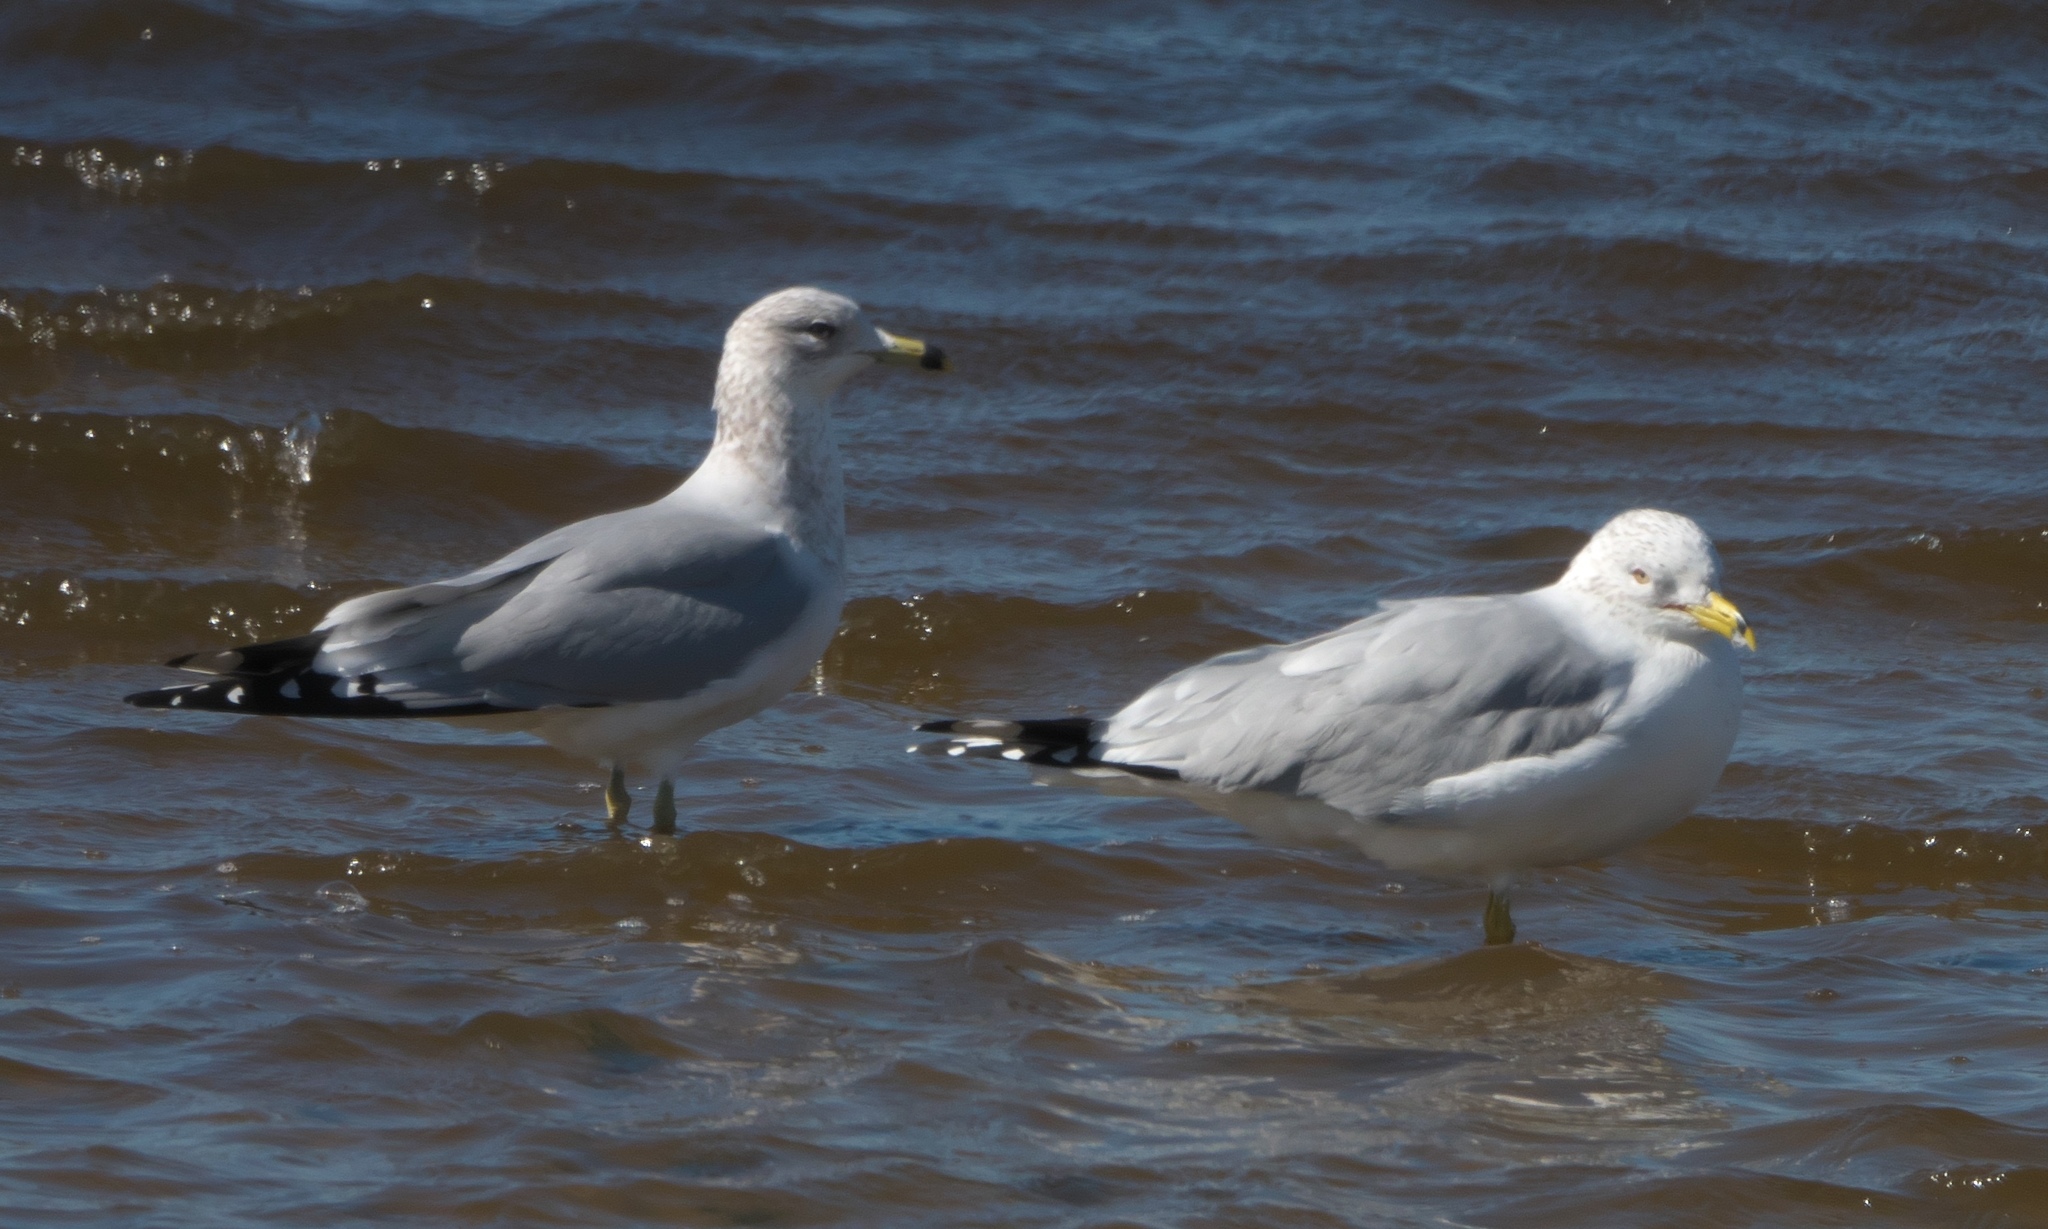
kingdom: Animalia
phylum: Chordata
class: Aves
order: Charadriiformes
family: Laridae
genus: Larus
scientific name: Larus delawarensis
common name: Ring-billed gull
